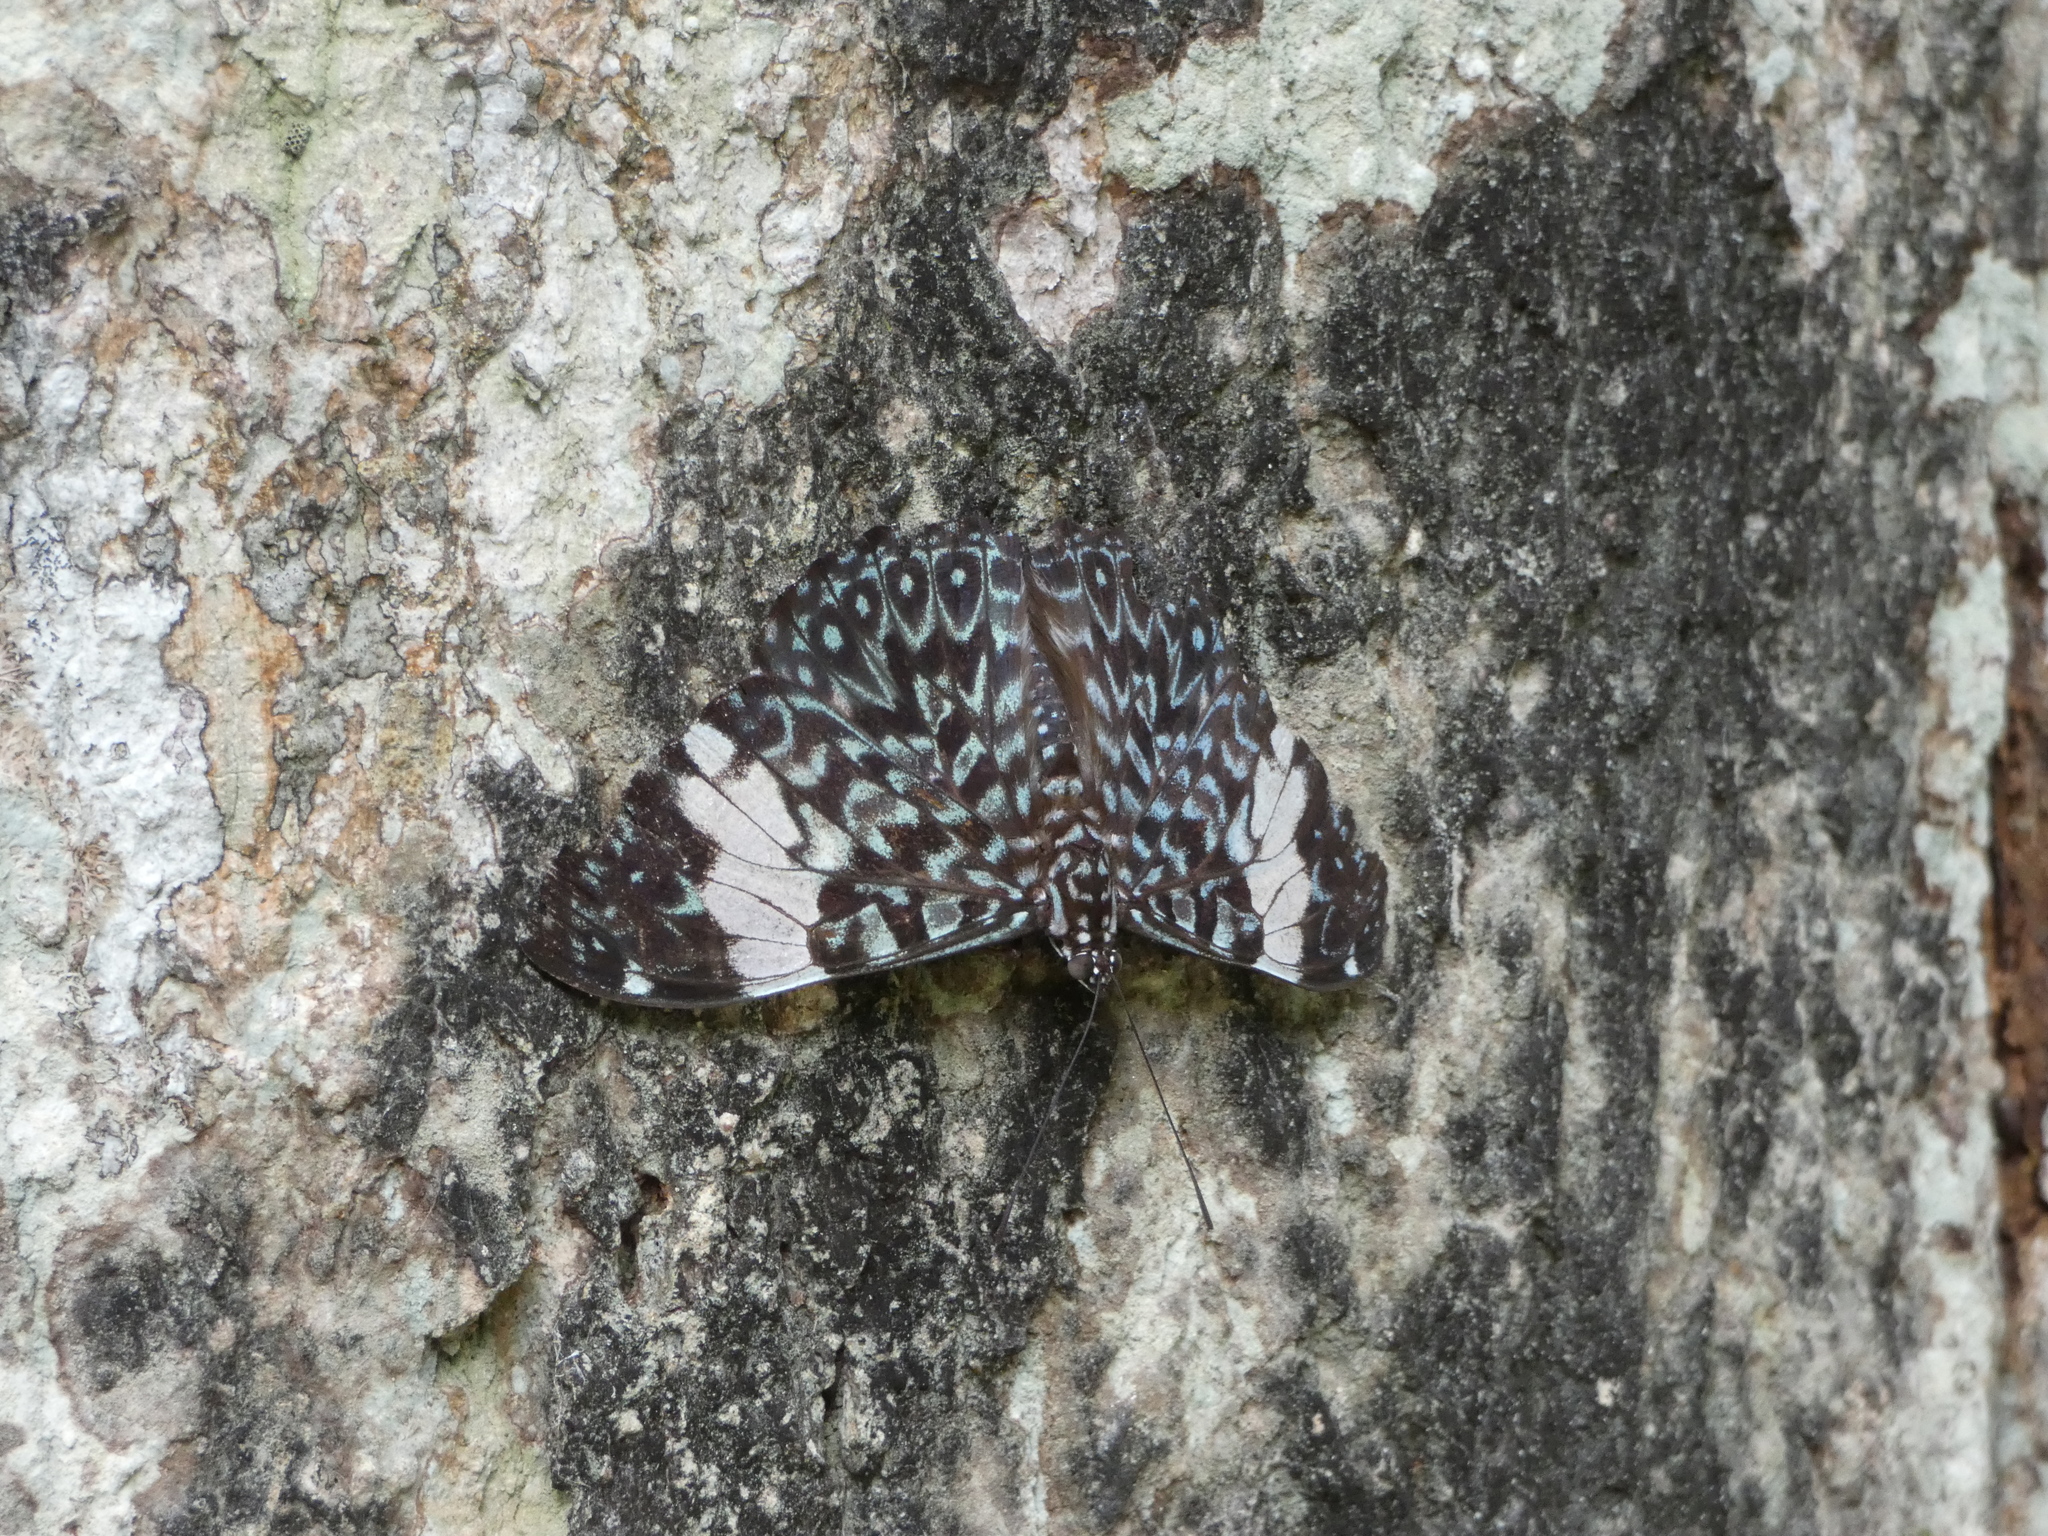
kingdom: Animalia
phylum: Arthropoda
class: Insecta
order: Lepidoptera
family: Nymphalidae
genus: Hamadryas
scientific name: Hamadryas amphinome
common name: Red cracker
